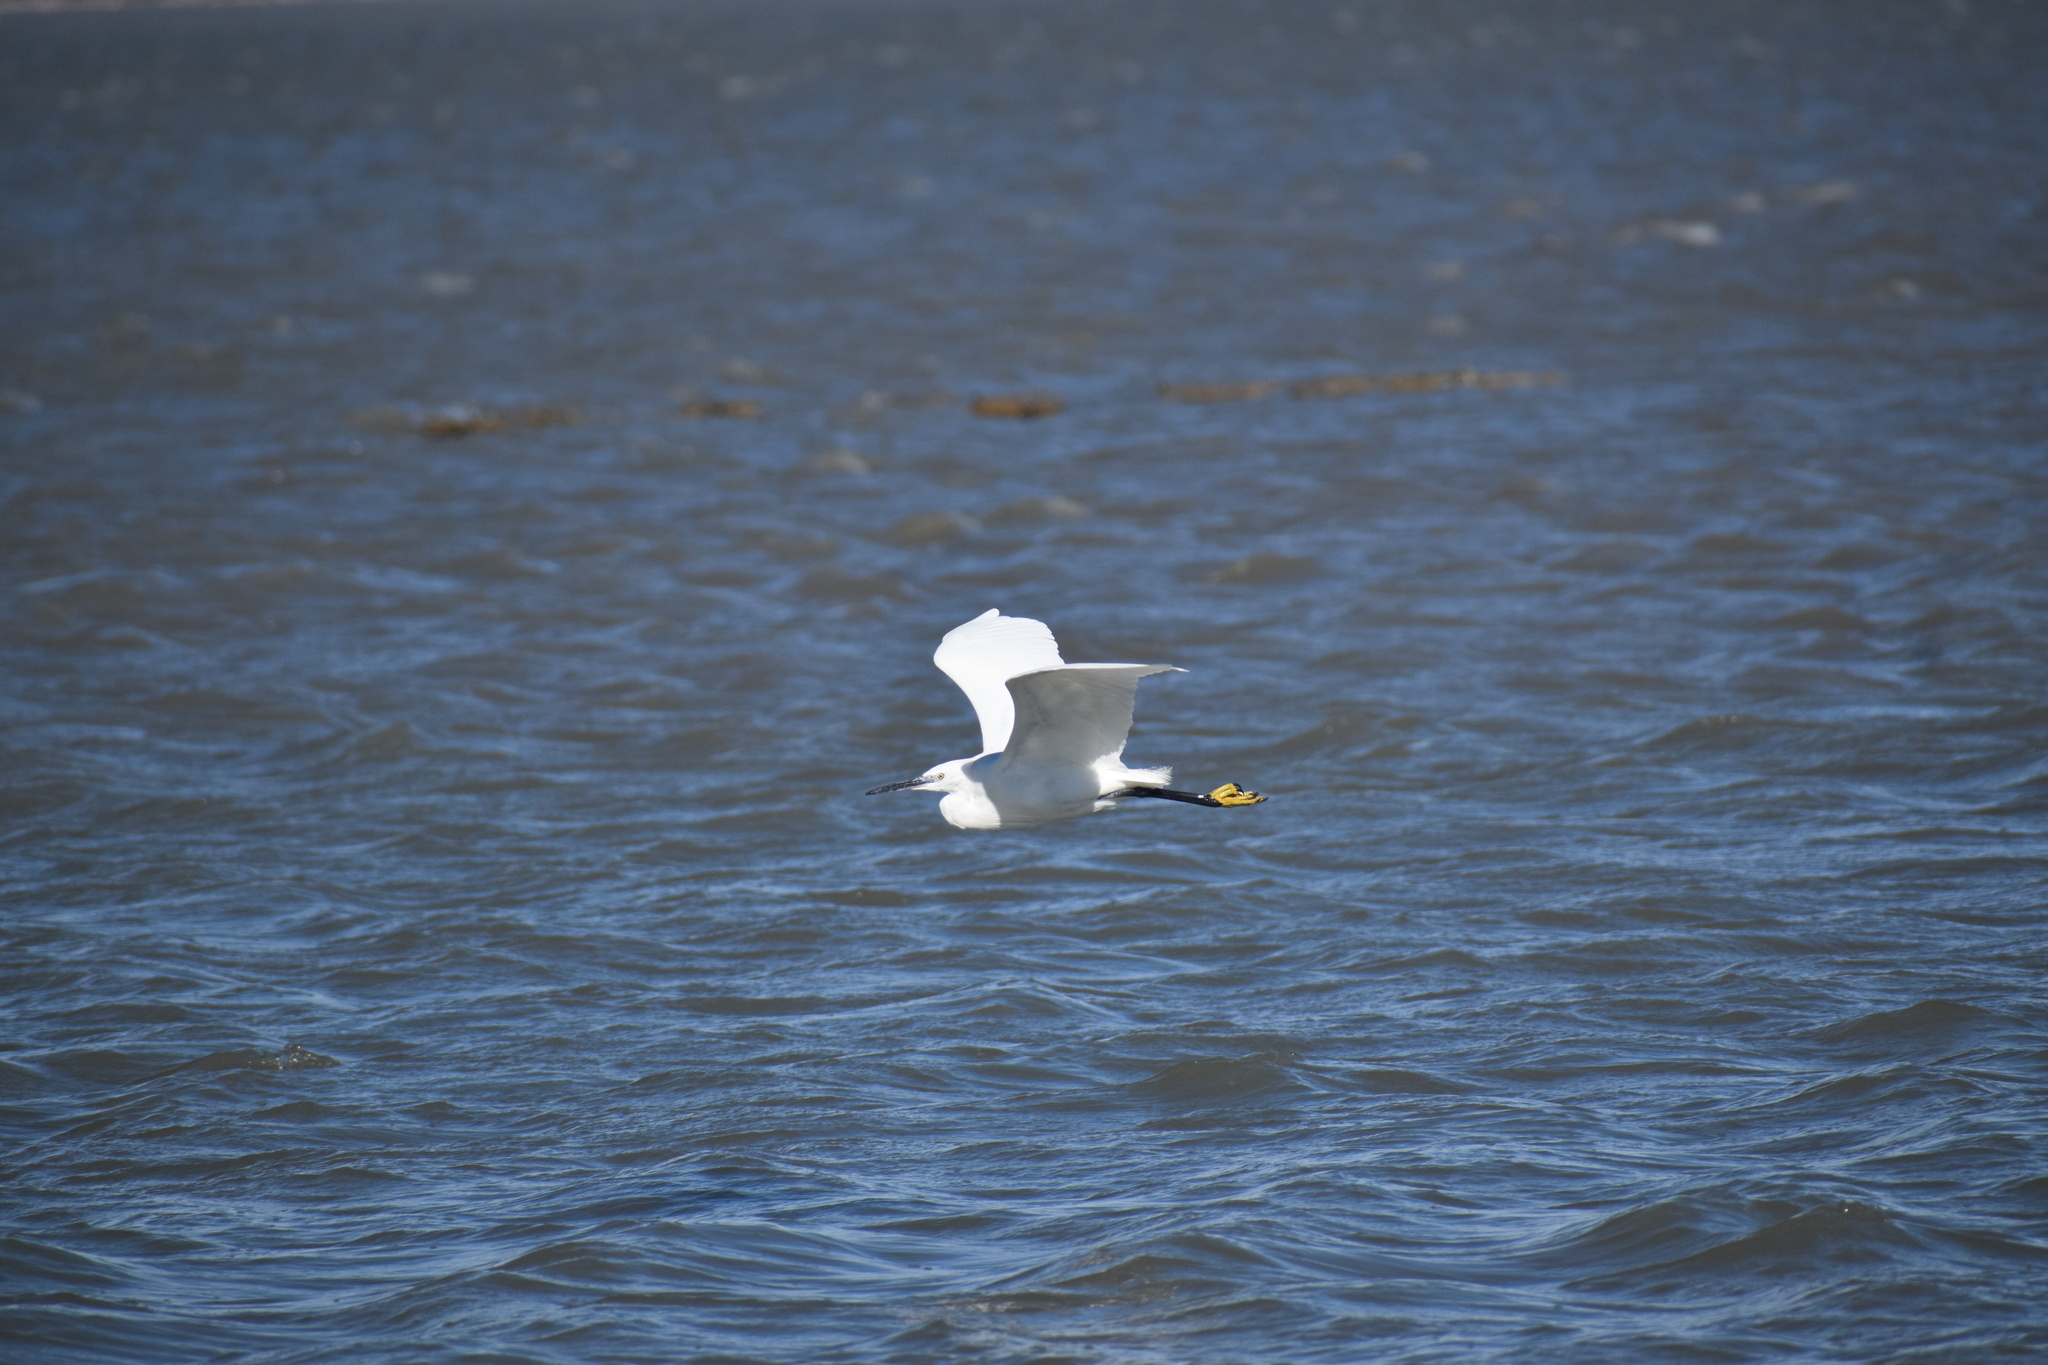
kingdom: Animalia
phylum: Chordata
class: Aves
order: Pelecaniformes
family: Ardeidae
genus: Egretta
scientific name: Egretta garzetta
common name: Little egret
